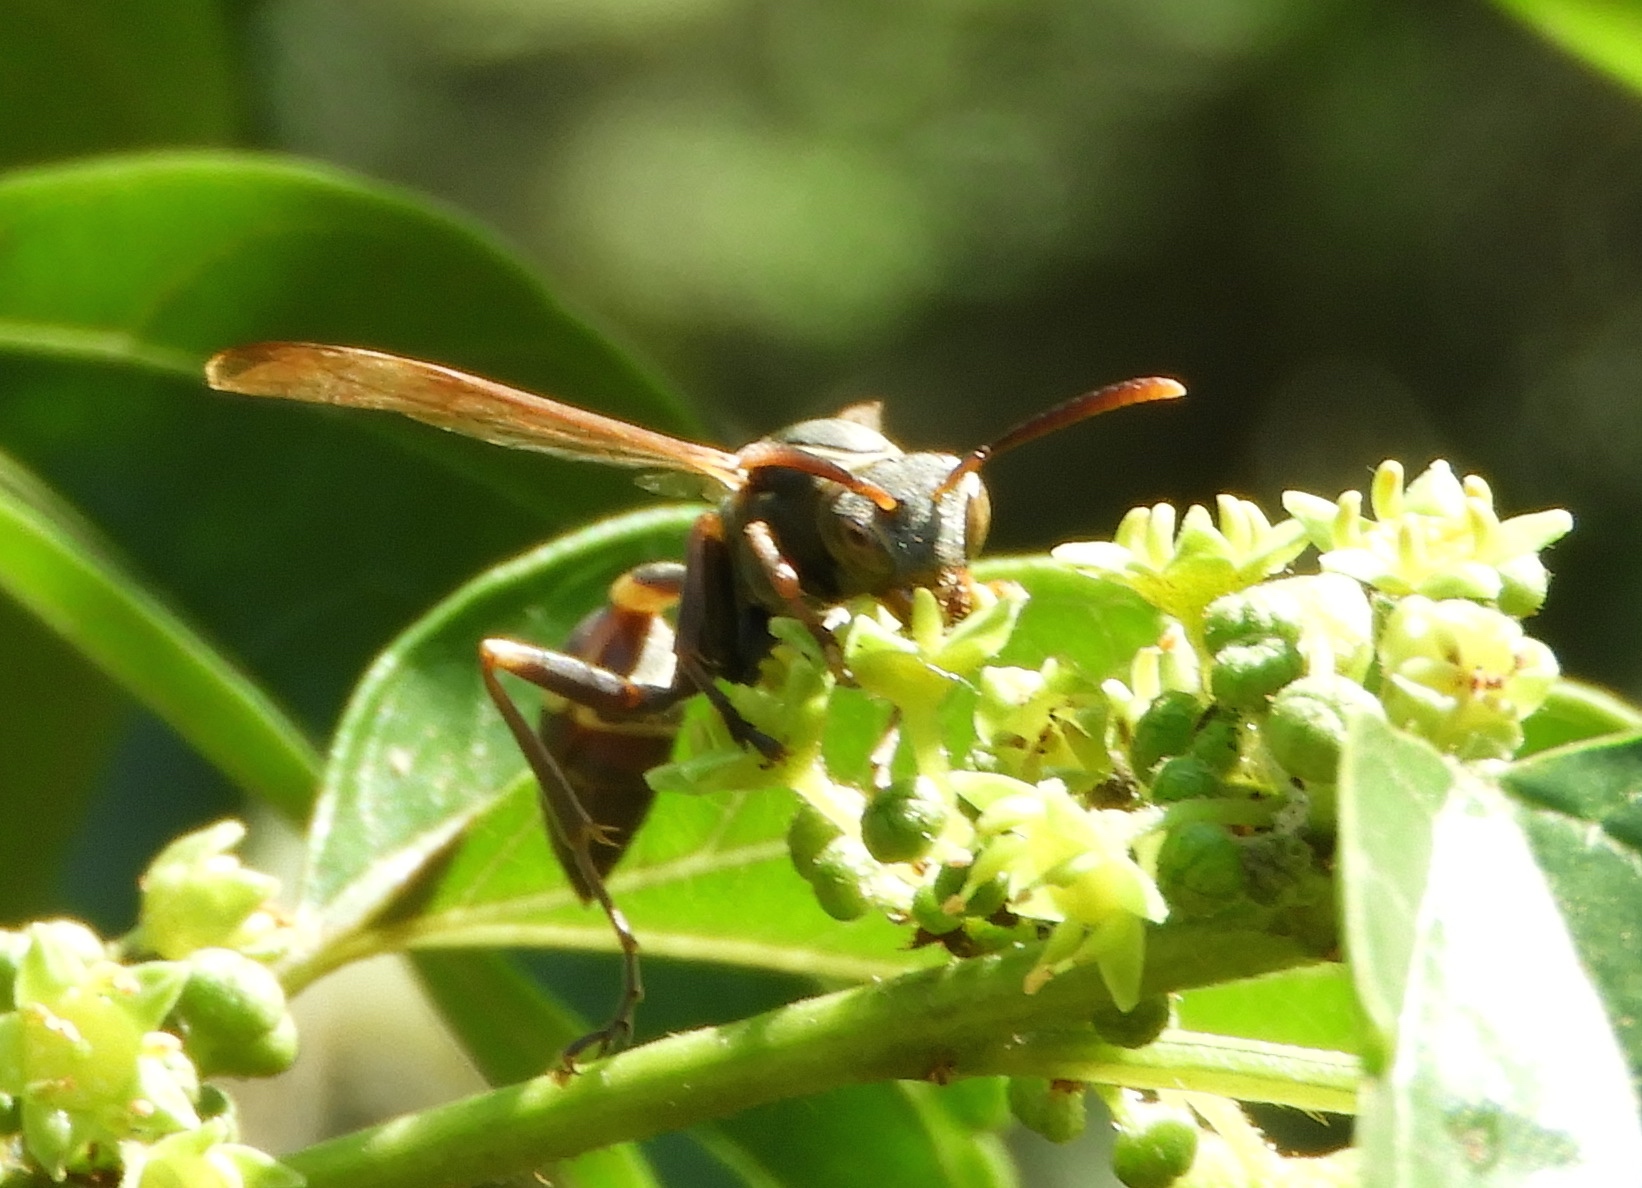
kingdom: Animalia
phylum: Arthropoda
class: Insecta
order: Hymenoptera
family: Vespidae
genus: Mischocyttarus
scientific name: Mischocyttarus
